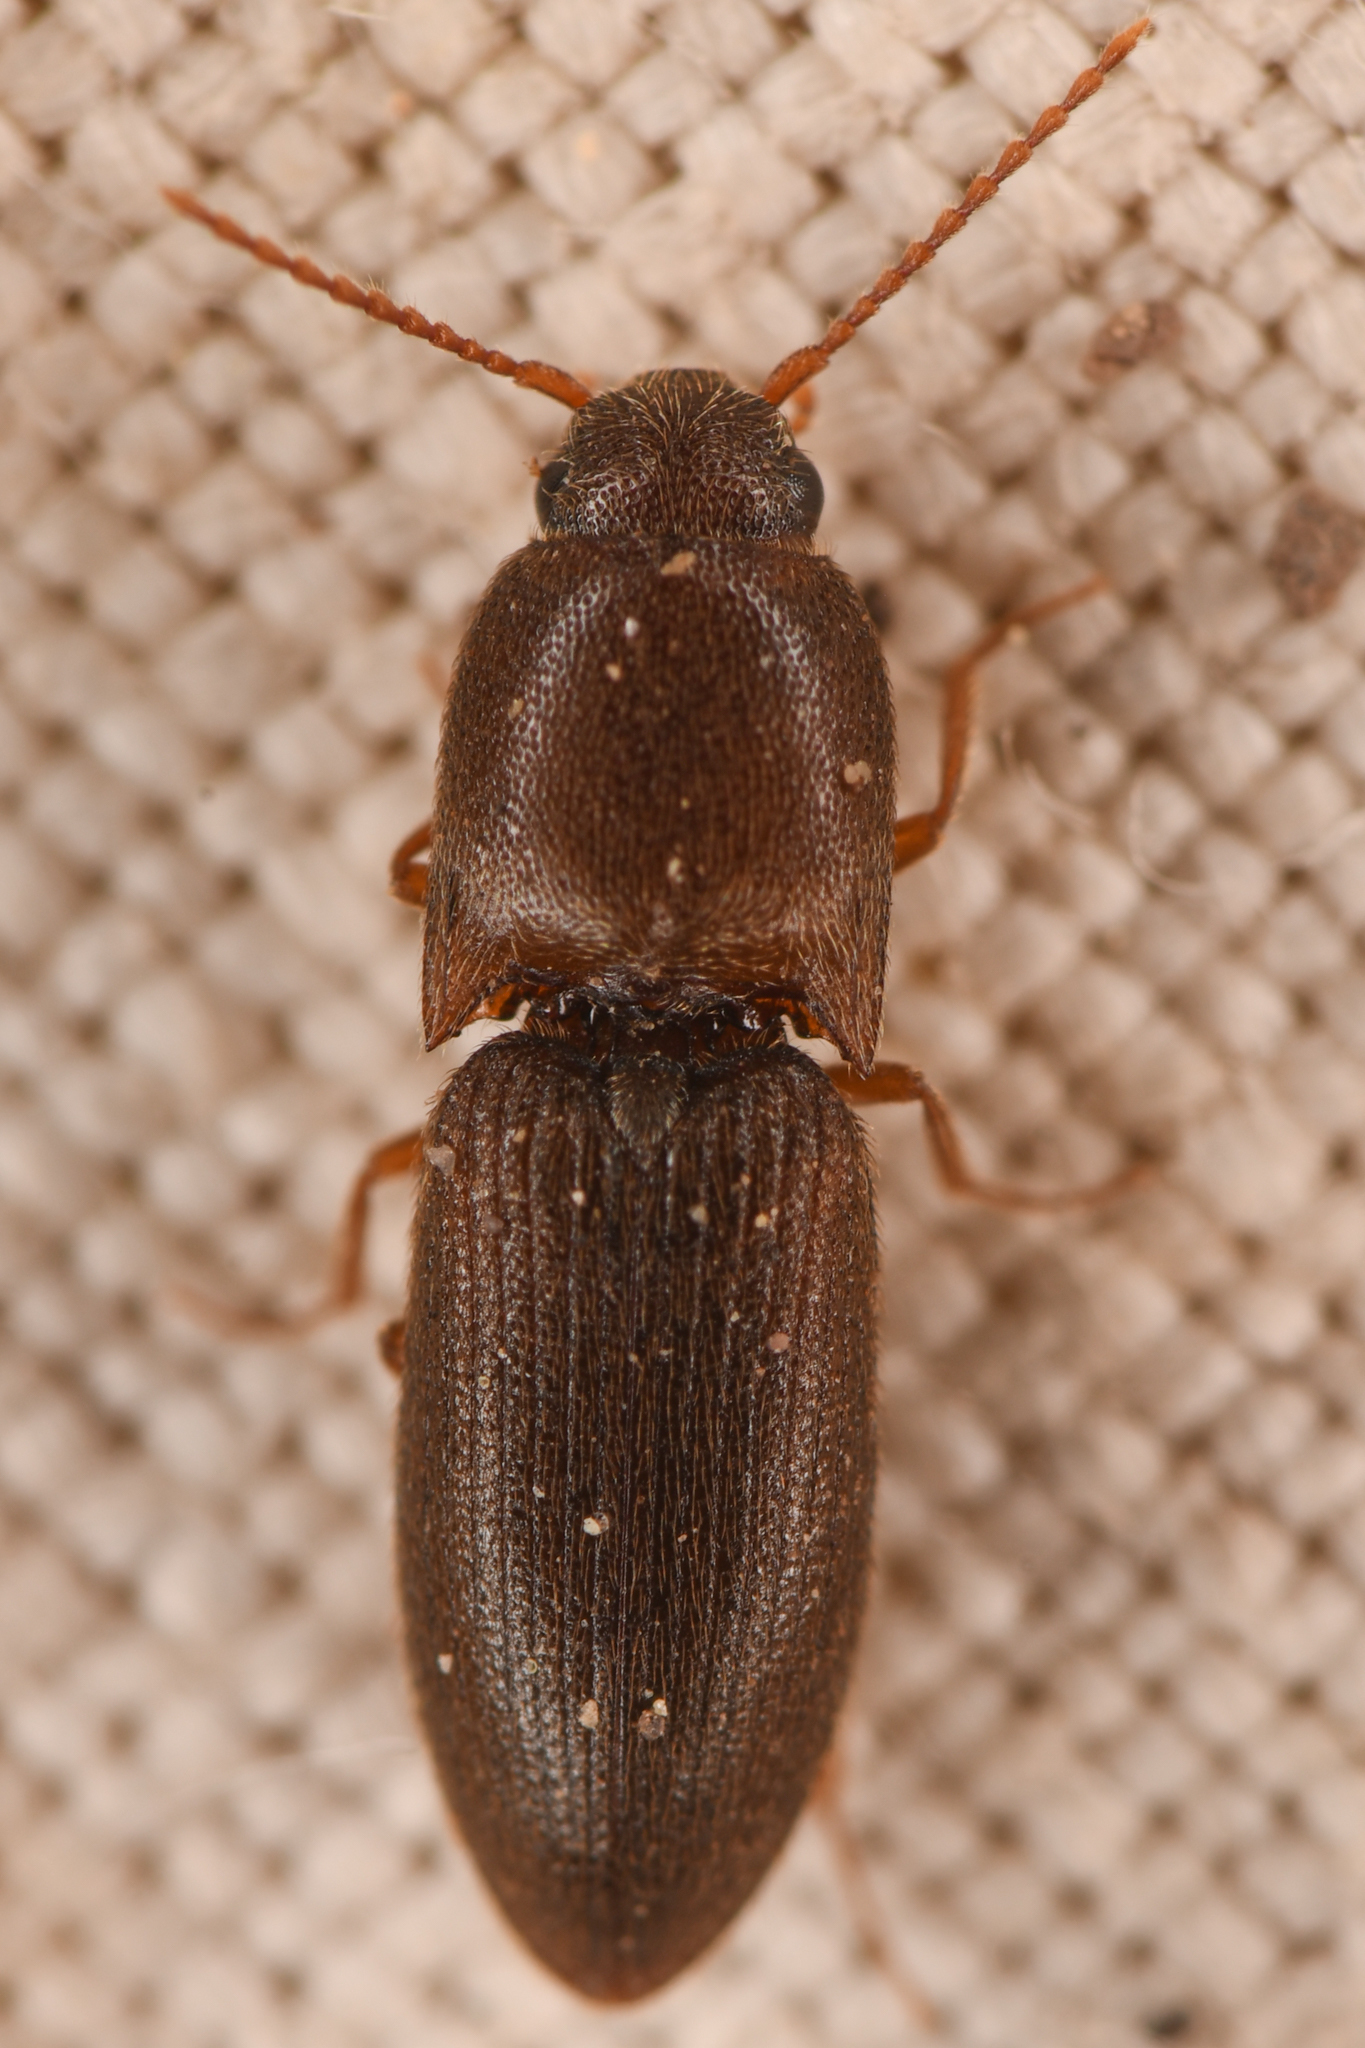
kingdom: Animalia
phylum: Arthropoda
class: Insecta
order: Coleoptera
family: Elateridae
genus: Agriotes
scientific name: Agriotes opaculus
